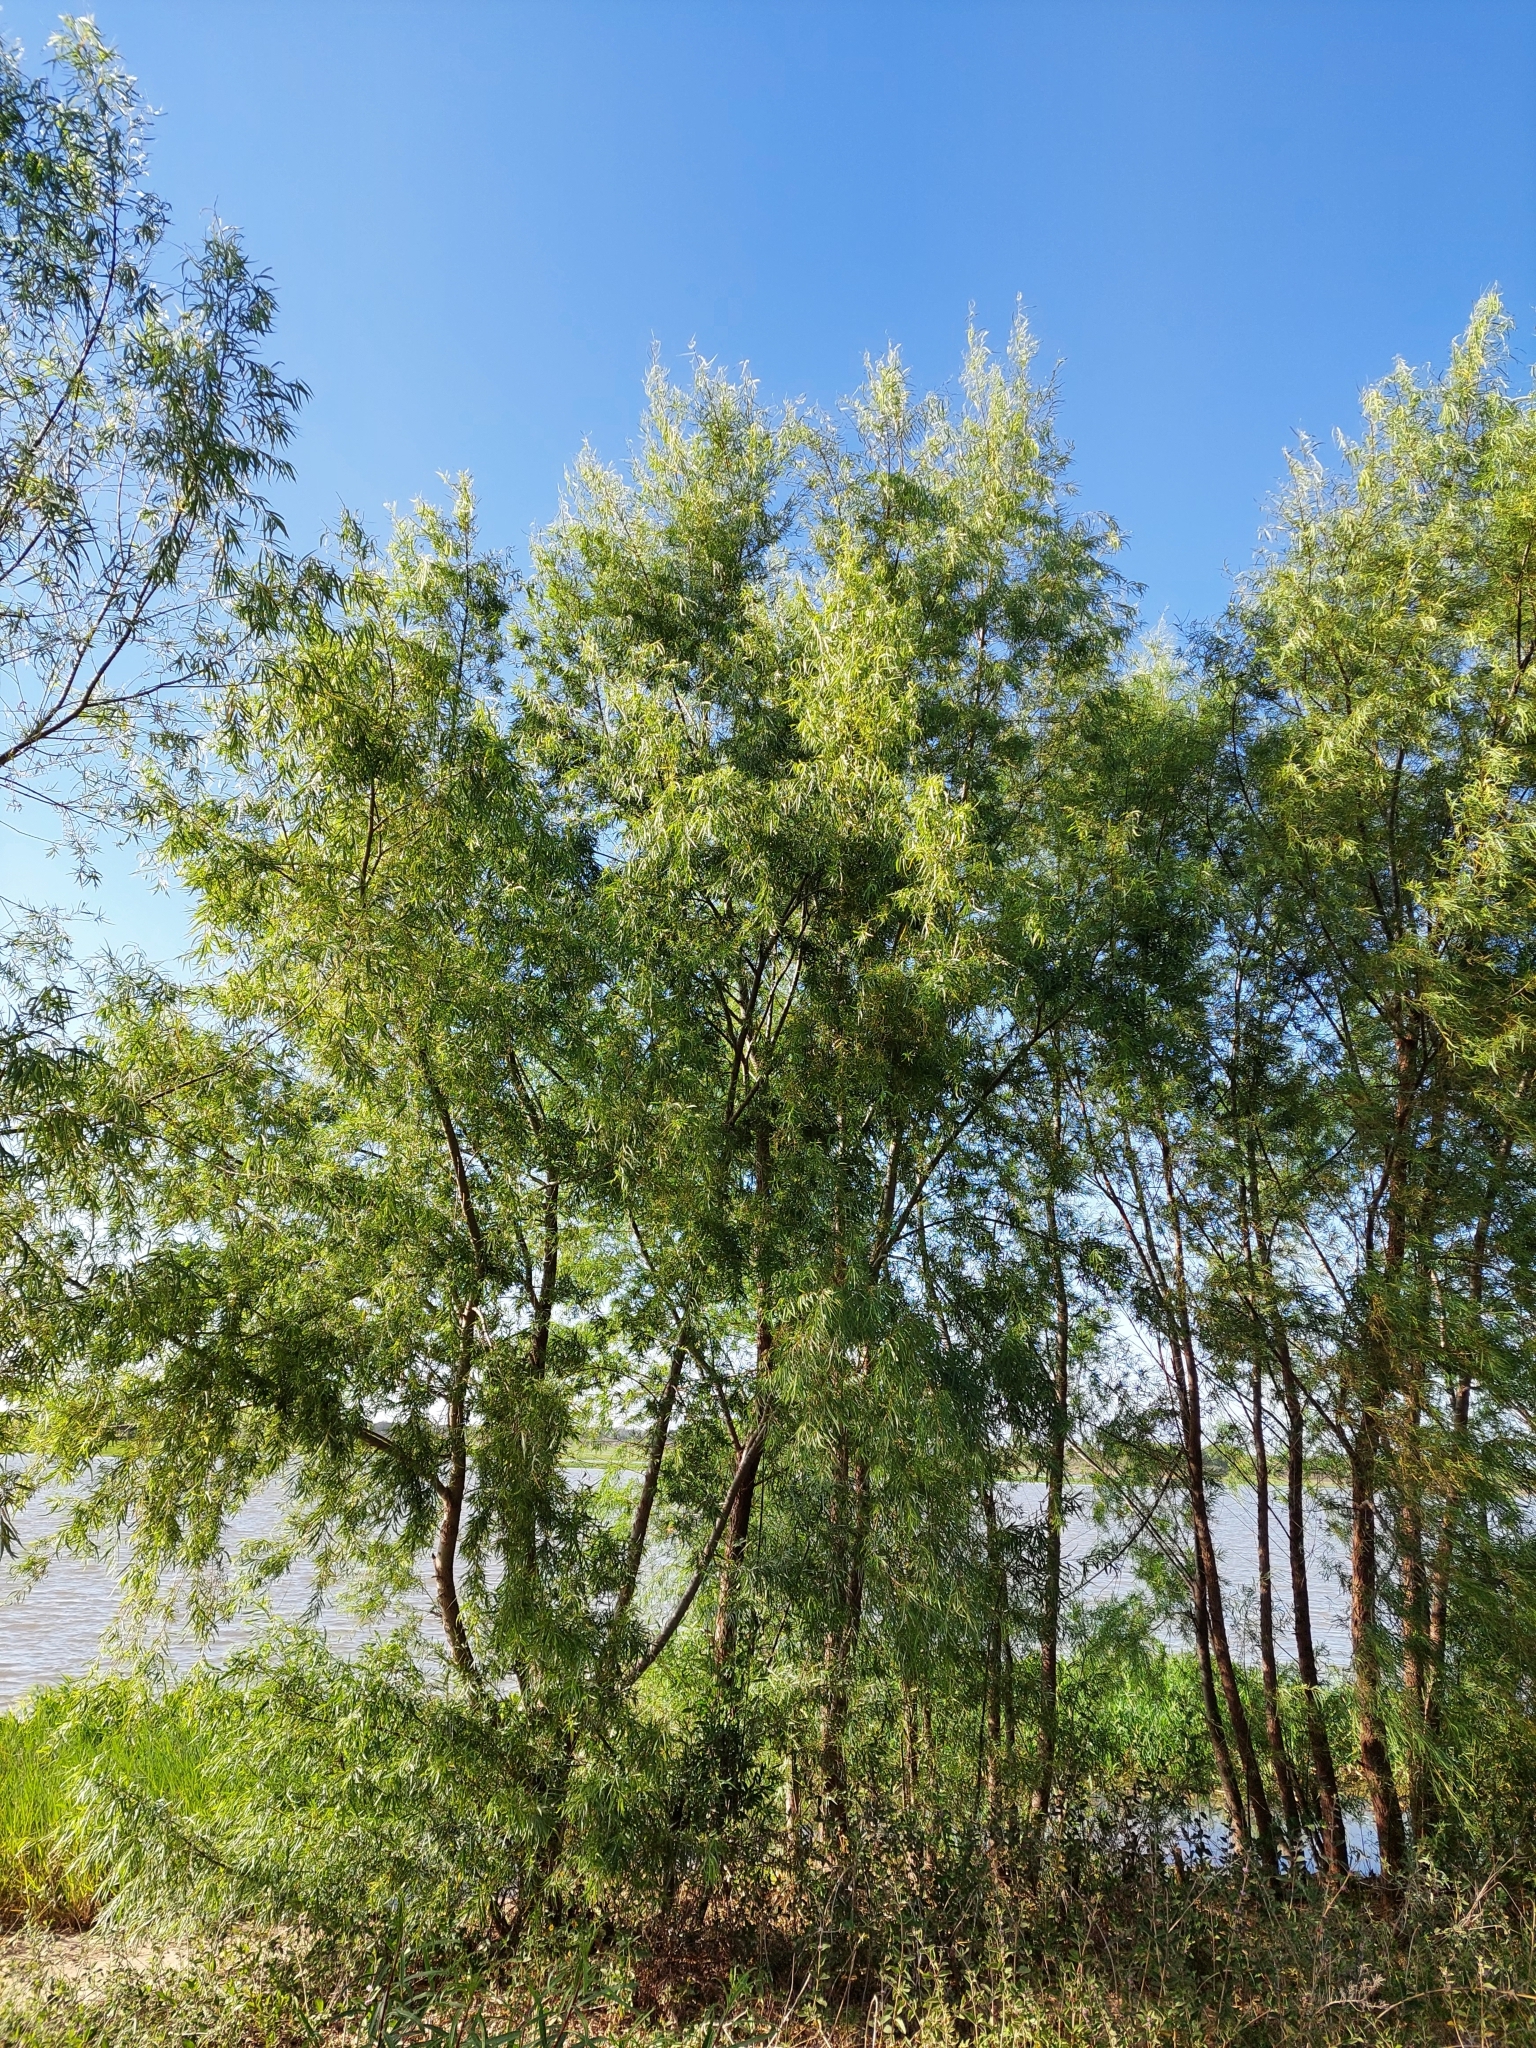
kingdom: Plantae
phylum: Tracheophyta
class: Magnoliopsida
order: Malpighiales
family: Salicaceae
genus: Salix
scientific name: Salix humboldtiana
